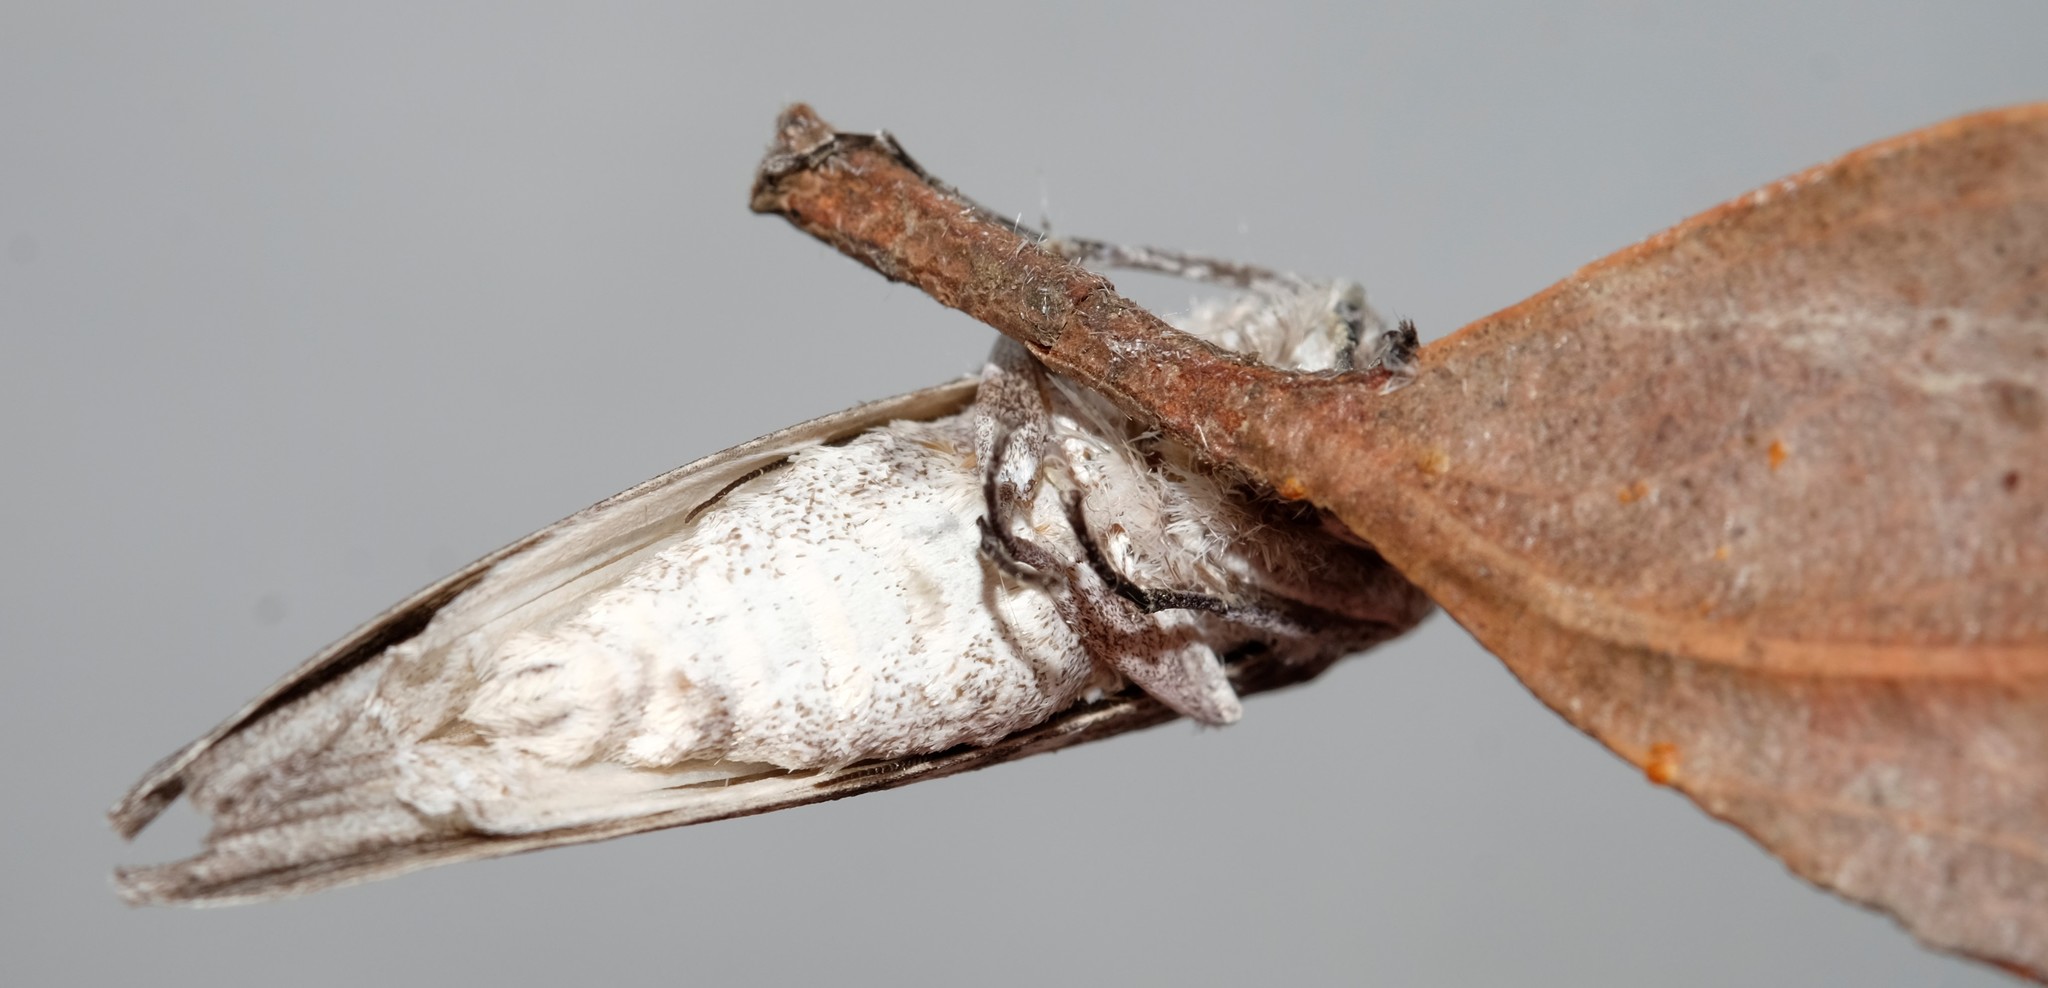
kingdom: Animalia
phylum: Arthropoda
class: Insecta
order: Lepidoptera
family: Geometridae
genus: Capusa
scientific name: Capusa cuculloides
